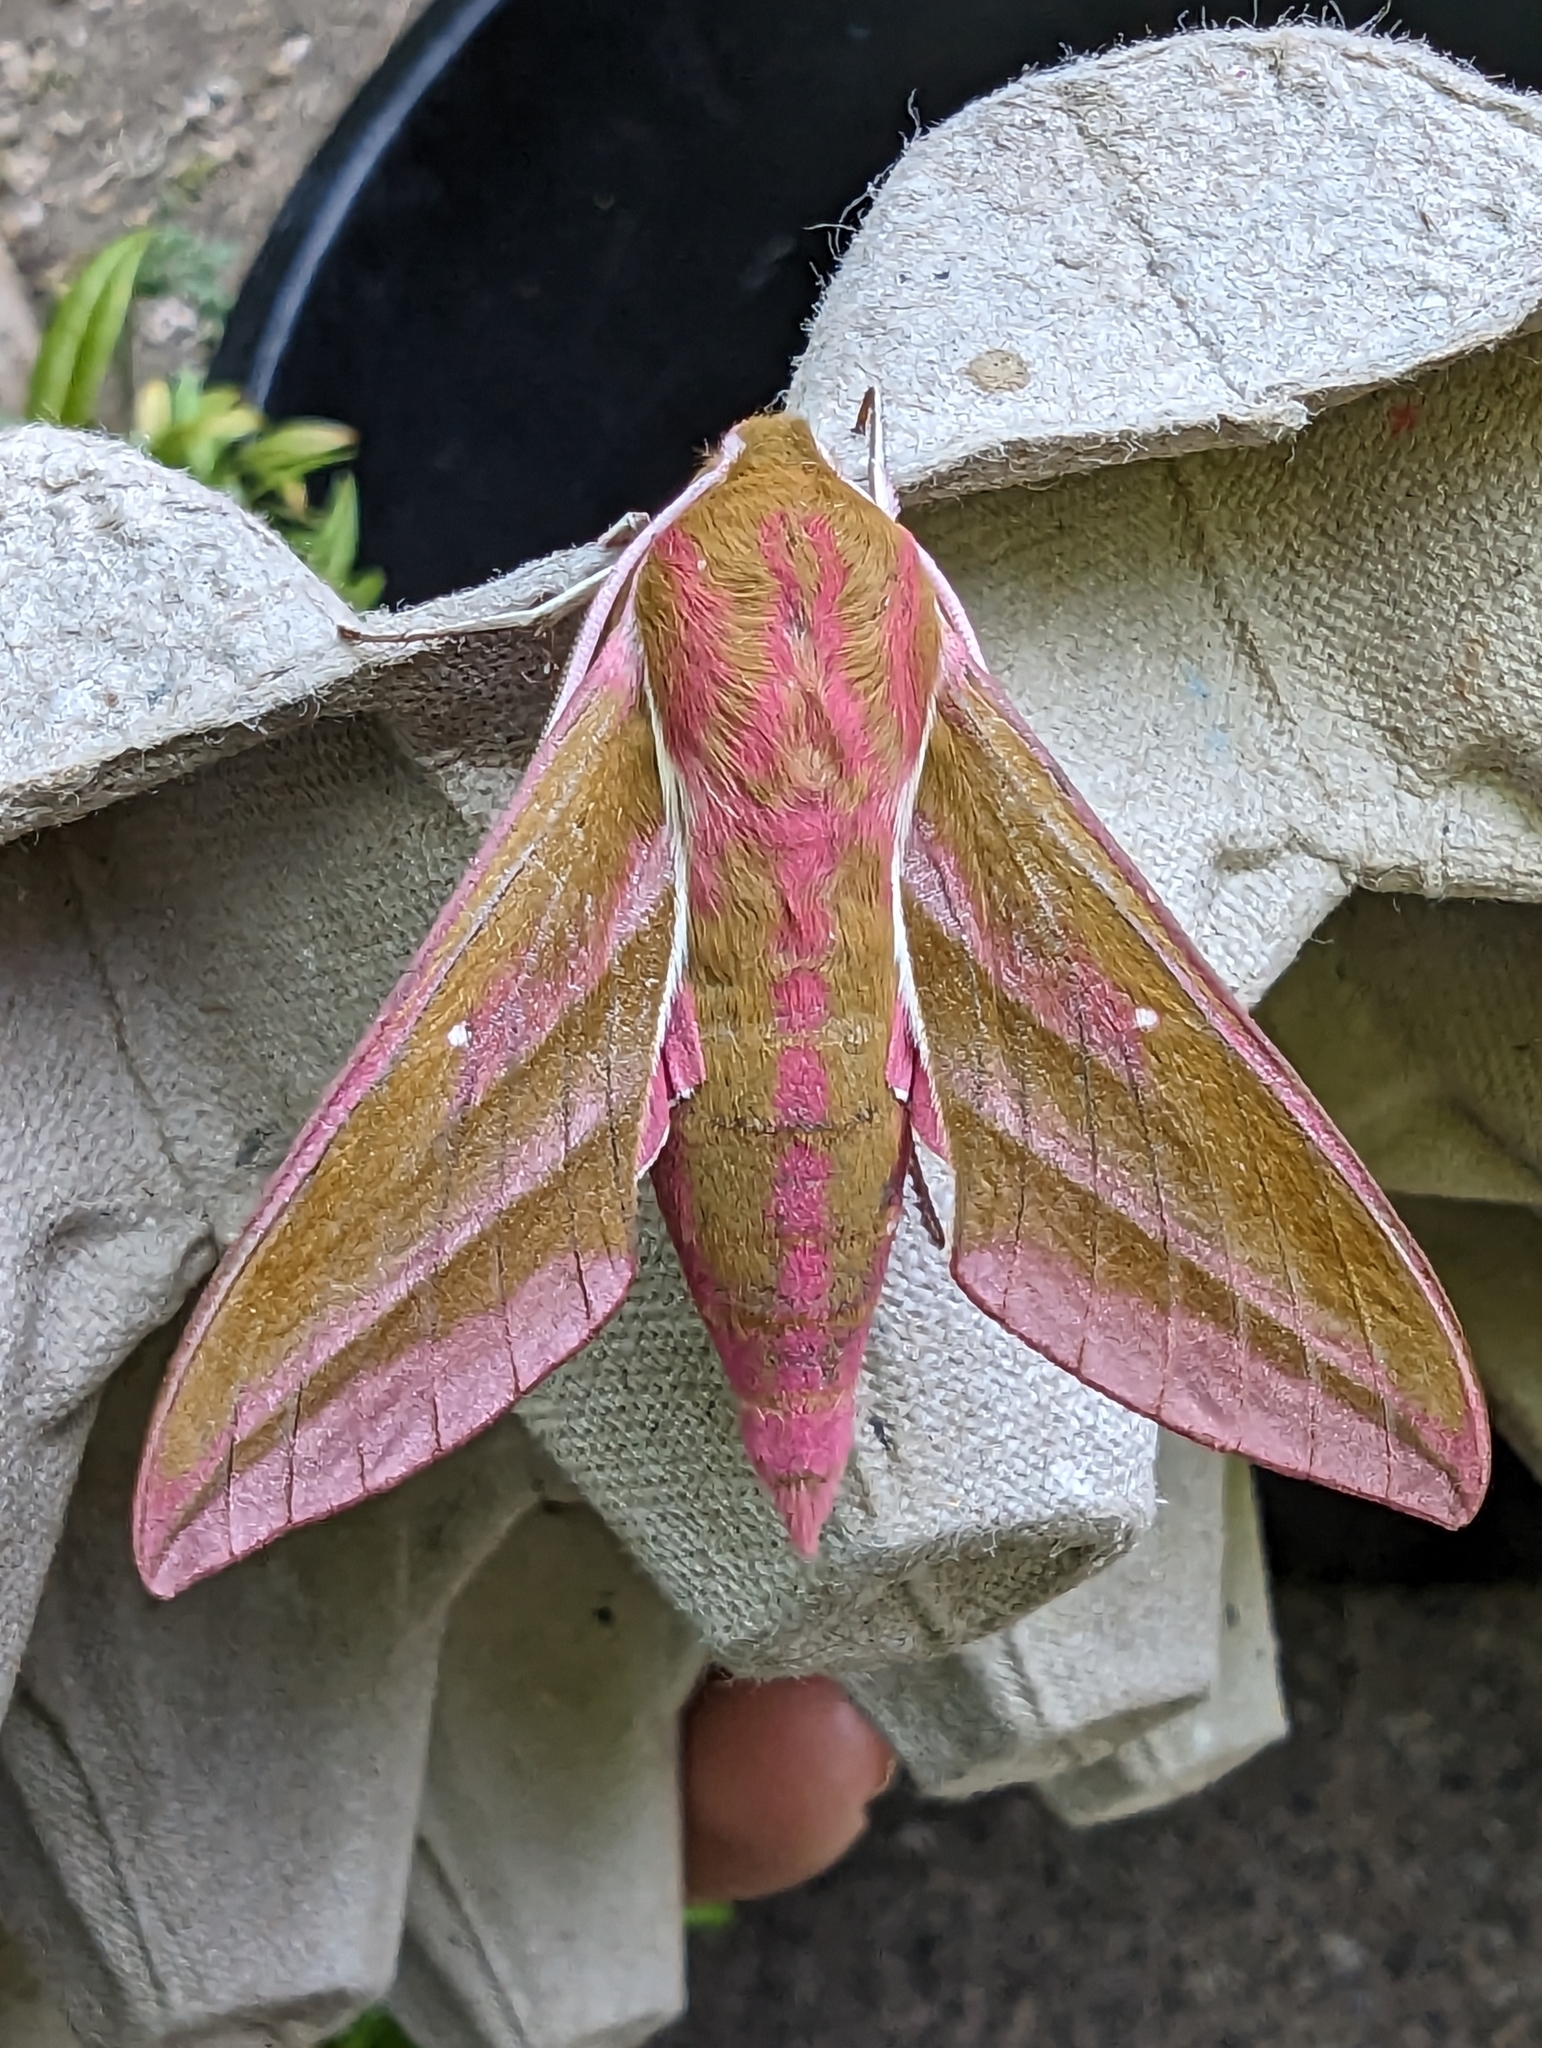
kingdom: Animalia
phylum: Arthropoda
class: Insecta
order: Lepidoptera
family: Sphingidae
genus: Deilephila
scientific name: Deilephila elpenor
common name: Elephant hawk-moth
